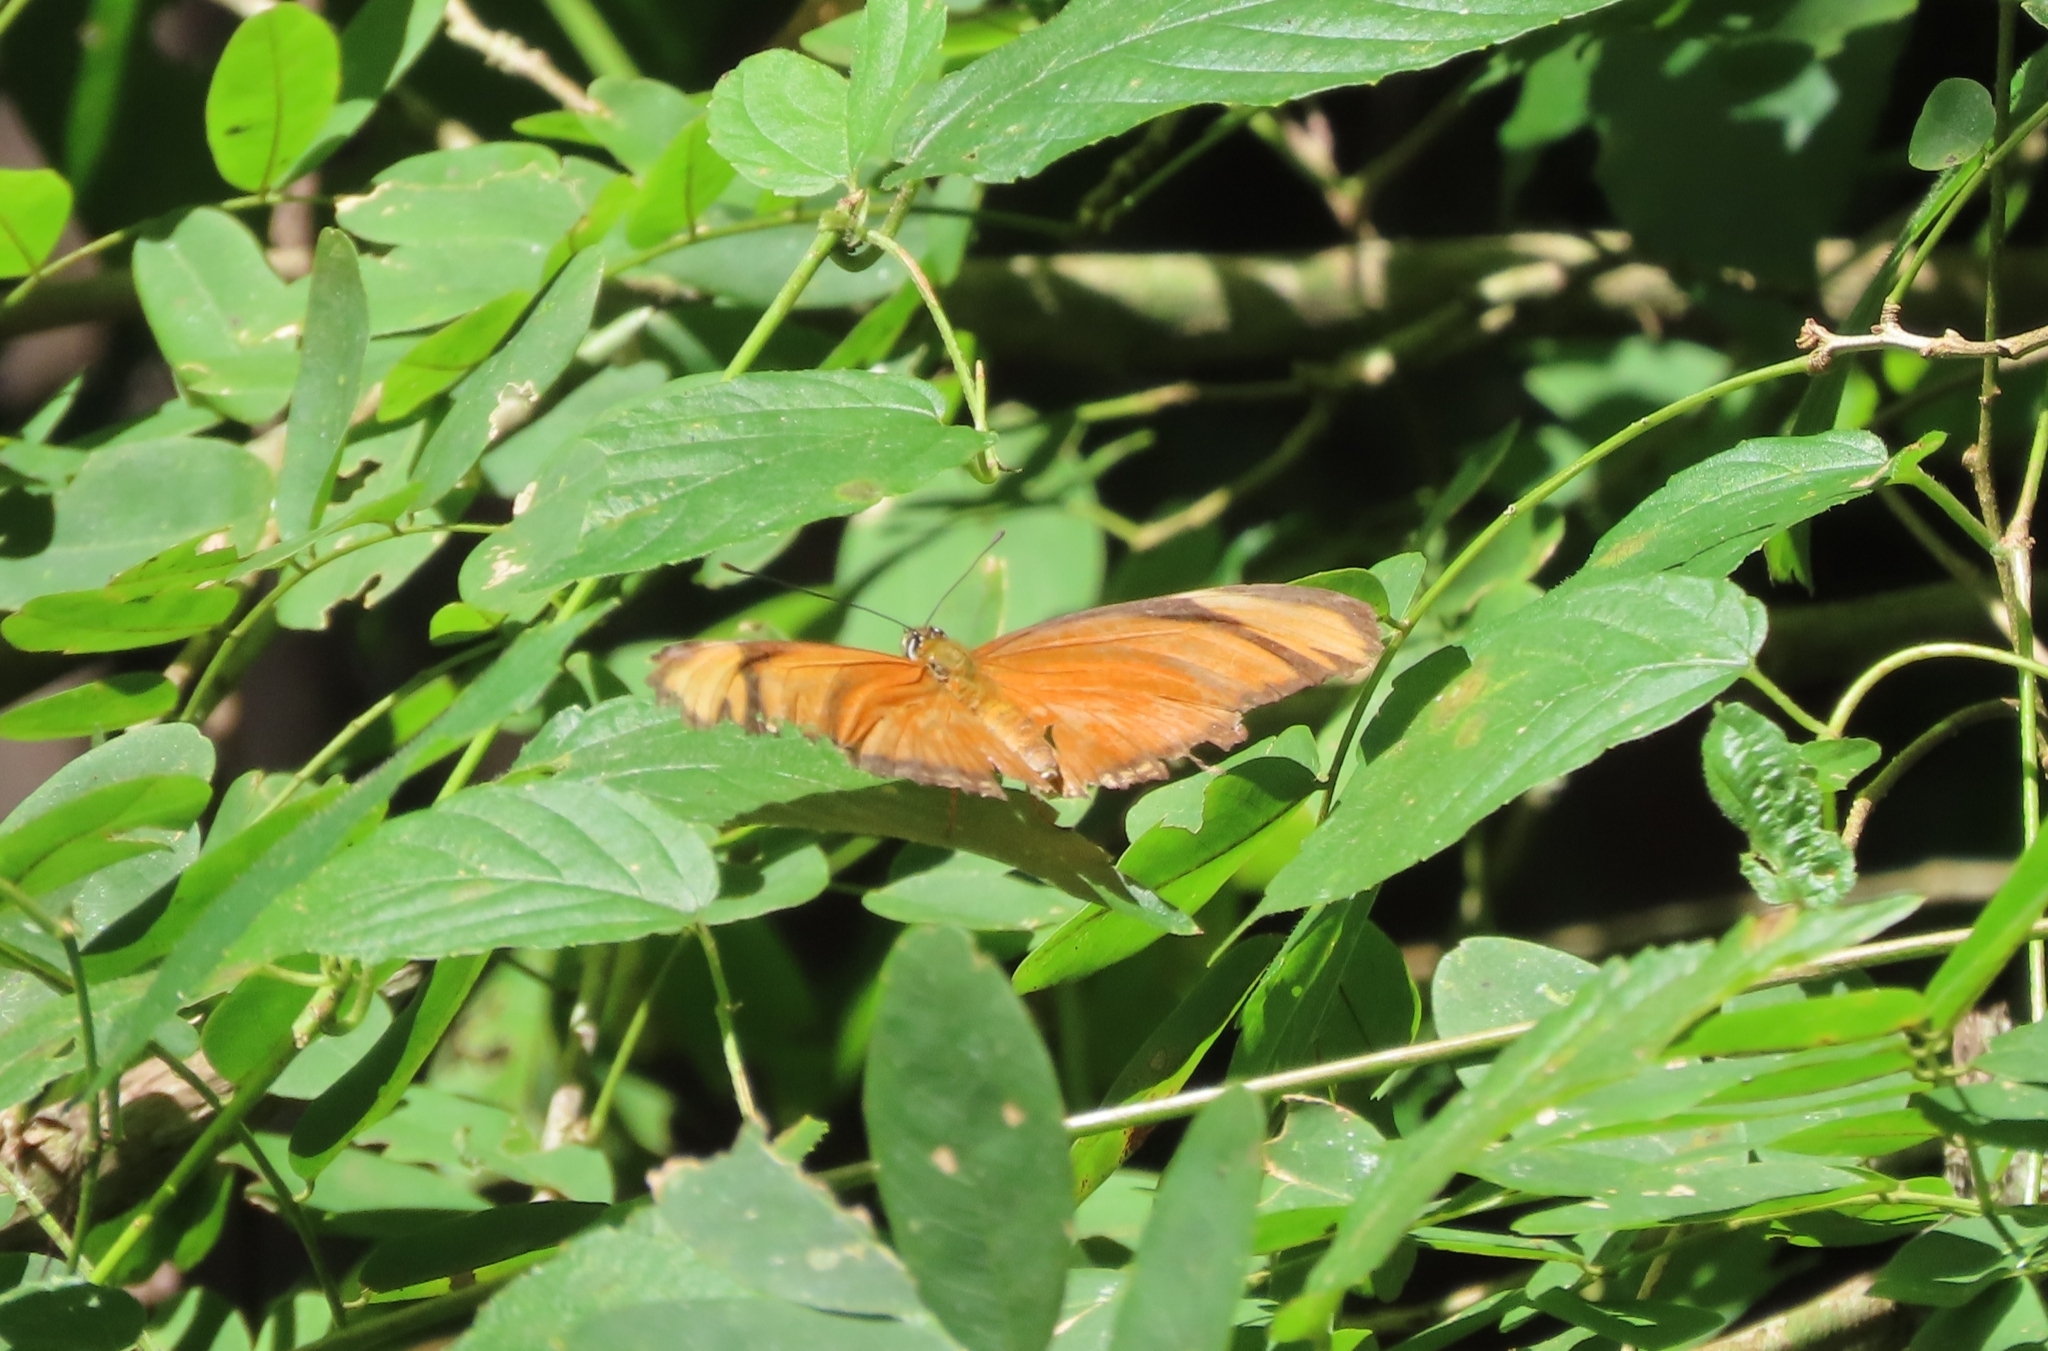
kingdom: Animalia
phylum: Arthropoda
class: Insecta
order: Lepidoptera
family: Nymphalidae
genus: Dryas
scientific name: Dryas iulia
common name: Flambeau
